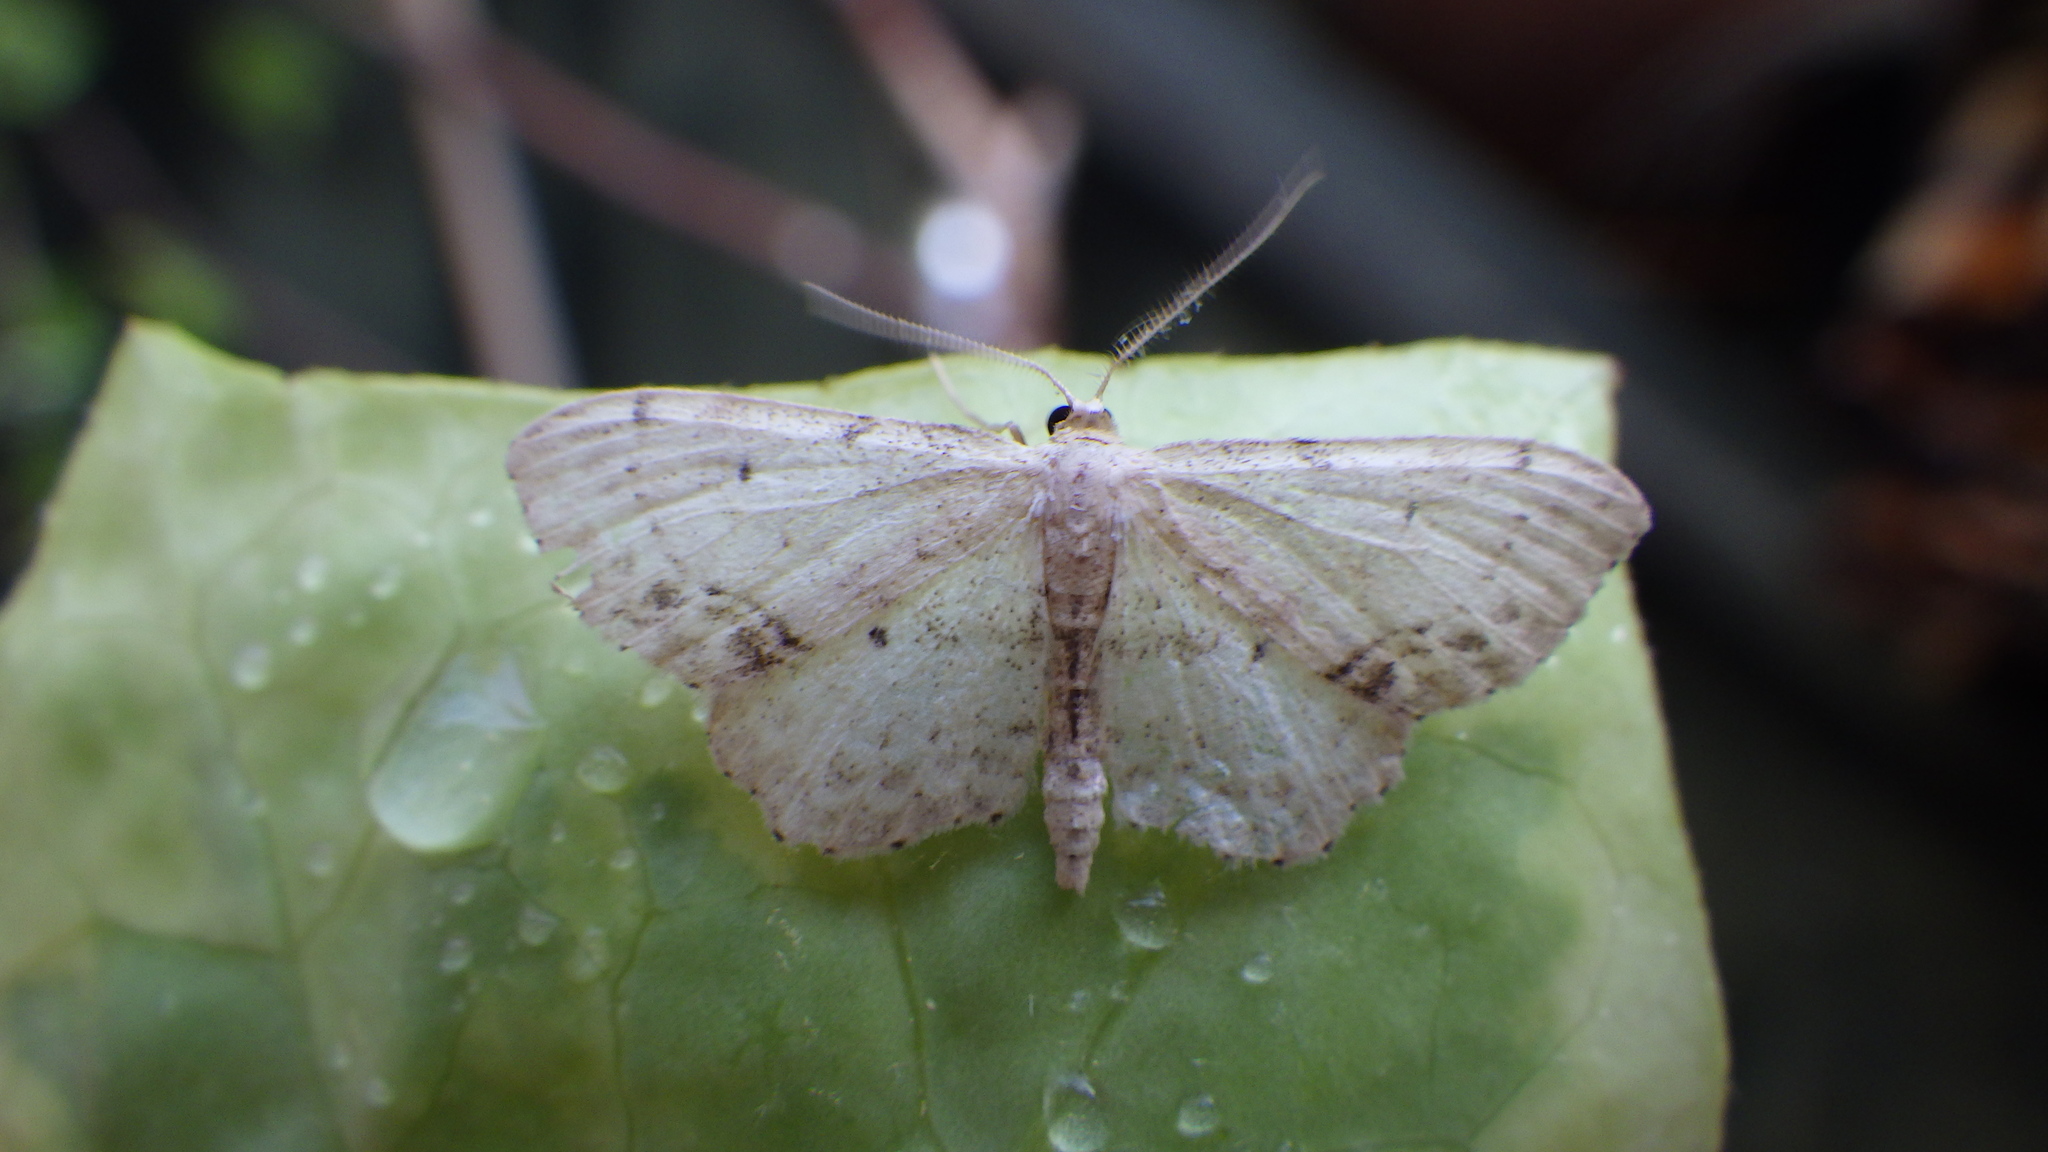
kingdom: Animalia
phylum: Arthropoda
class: Insecta
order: Lepidoptera
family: Geometridae
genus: Idaea
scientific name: Idaea dimidiata
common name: Single-dotted wave
